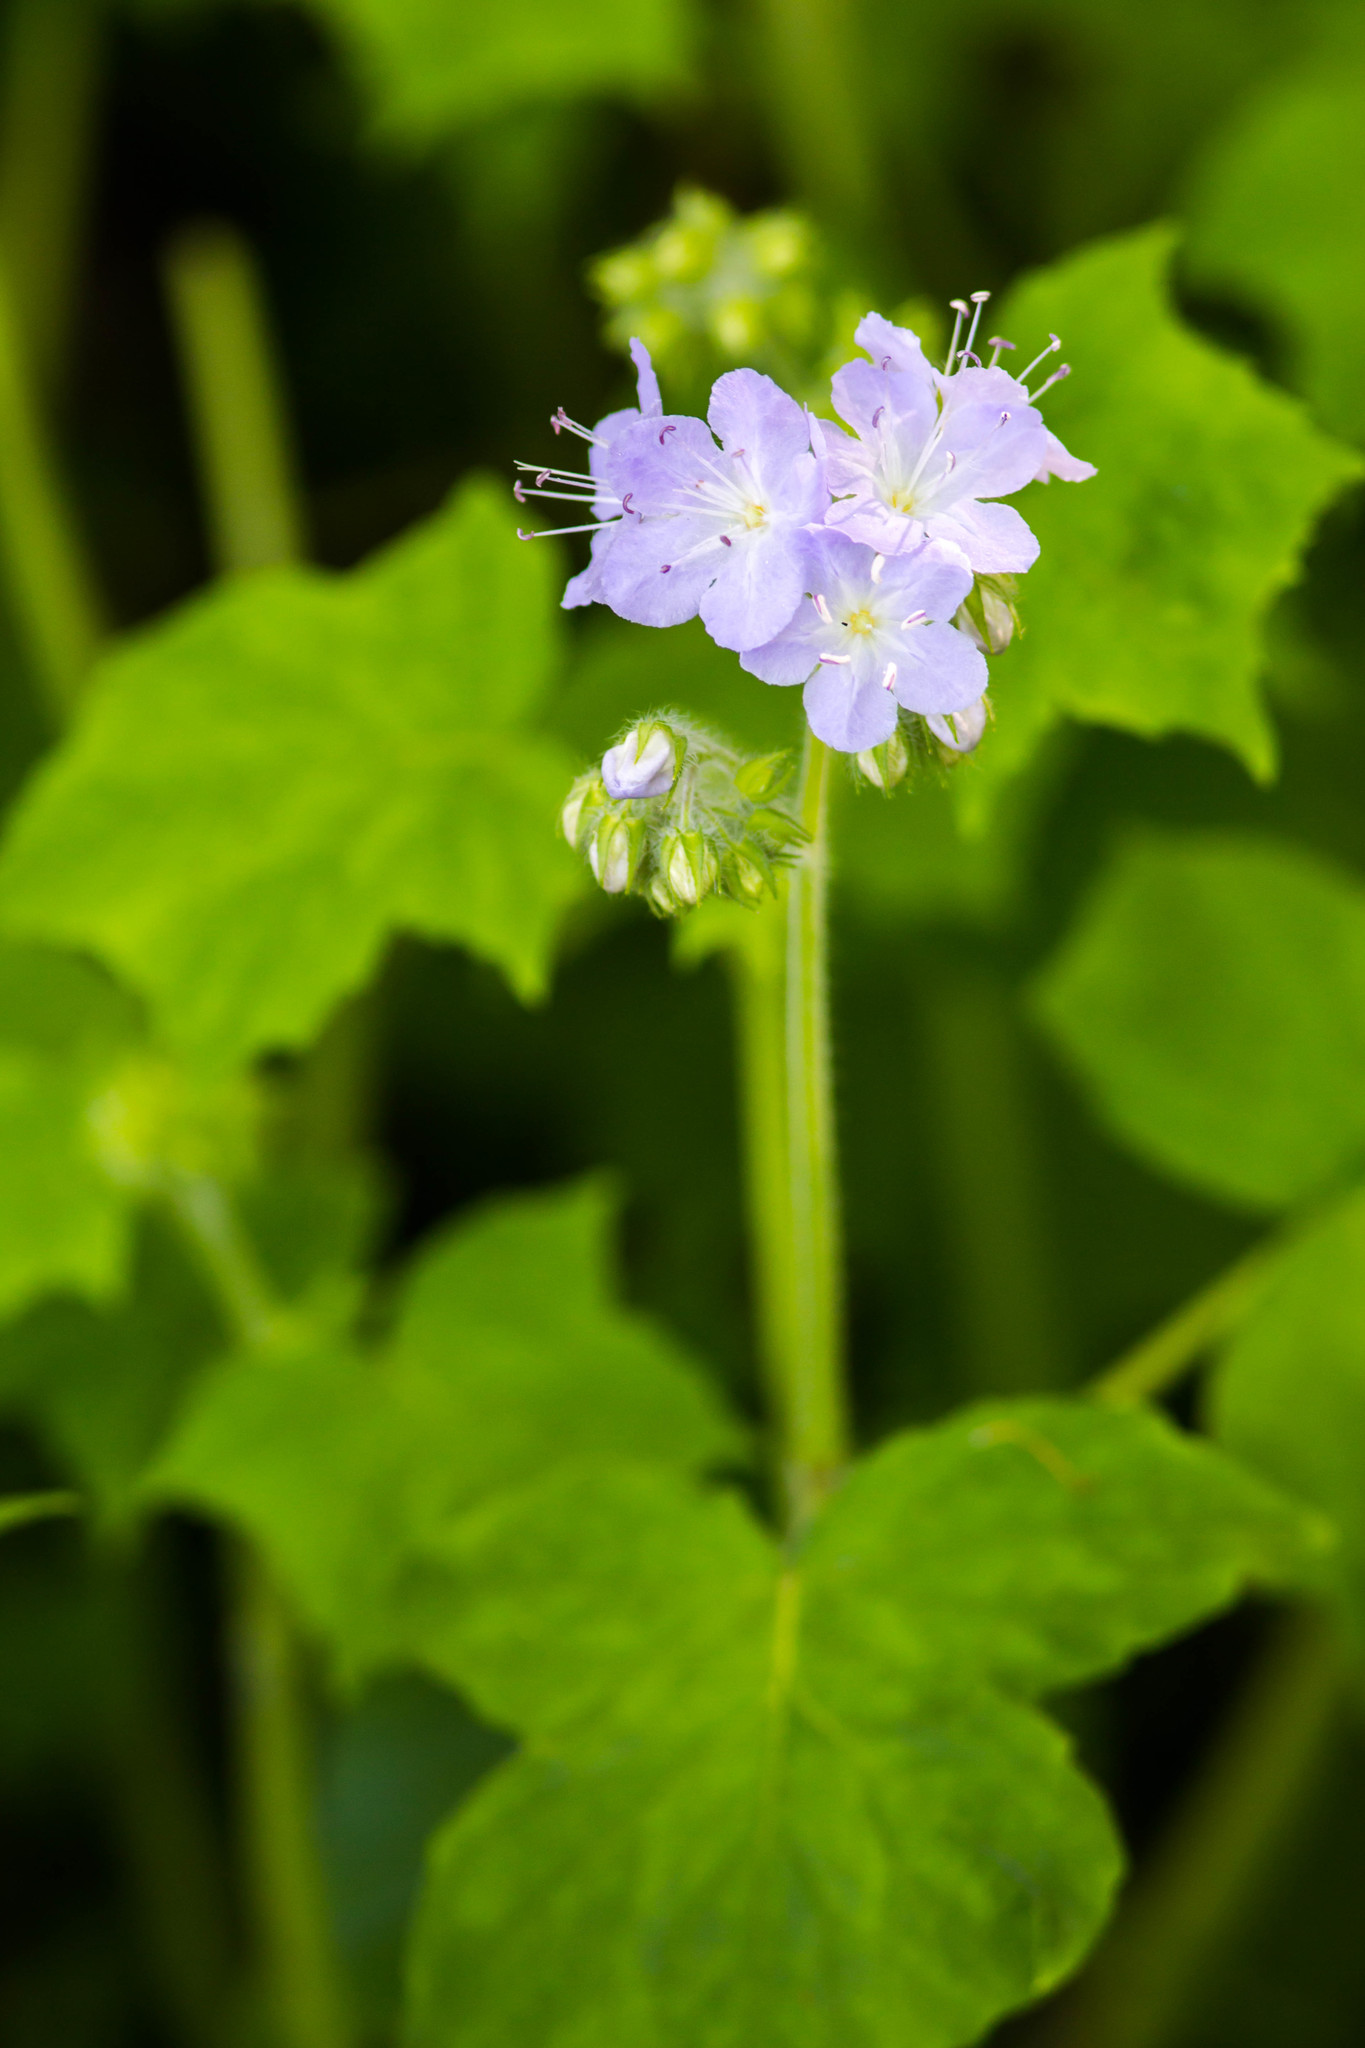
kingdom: Plantae
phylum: Tracheophyta
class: Magnoliopsida
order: Boraginales
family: Hydrophyllaceae
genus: Hydrophyllum
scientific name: Hydrophyllum appendiculatum
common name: Appendaged waterleaf
